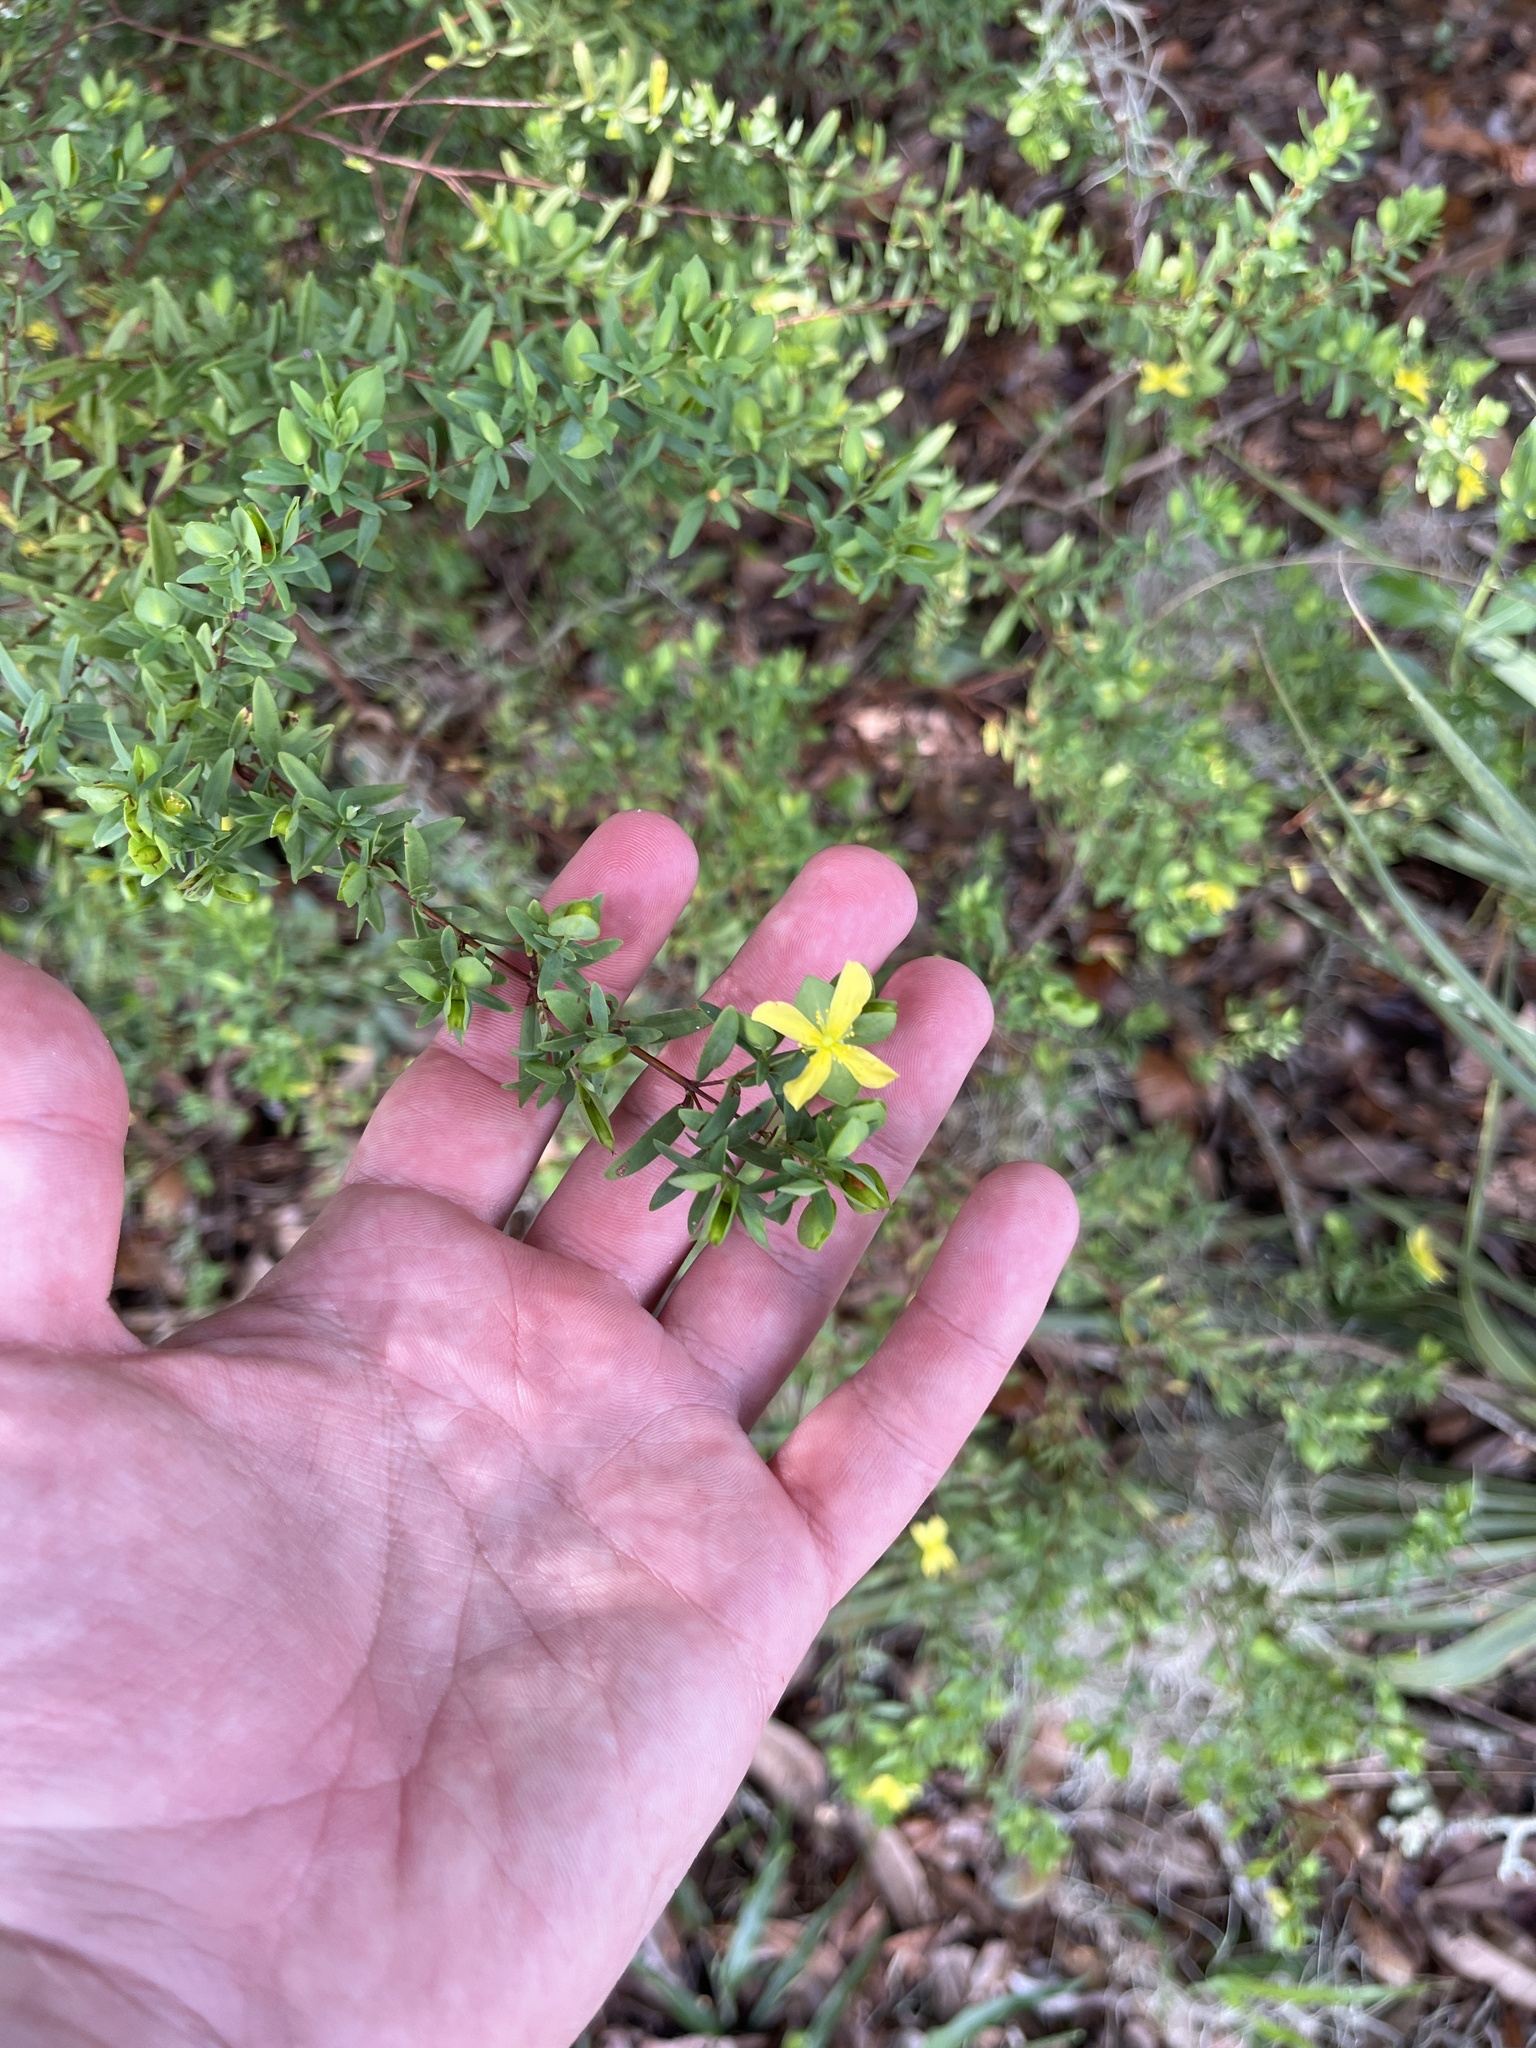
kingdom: Plantae
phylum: Tracheophyta
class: Magnoliopsida
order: Malpighiales
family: Hypericaceae
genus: Hypericum
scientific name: Hypericum hypericoides
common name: St. andrew's cross
